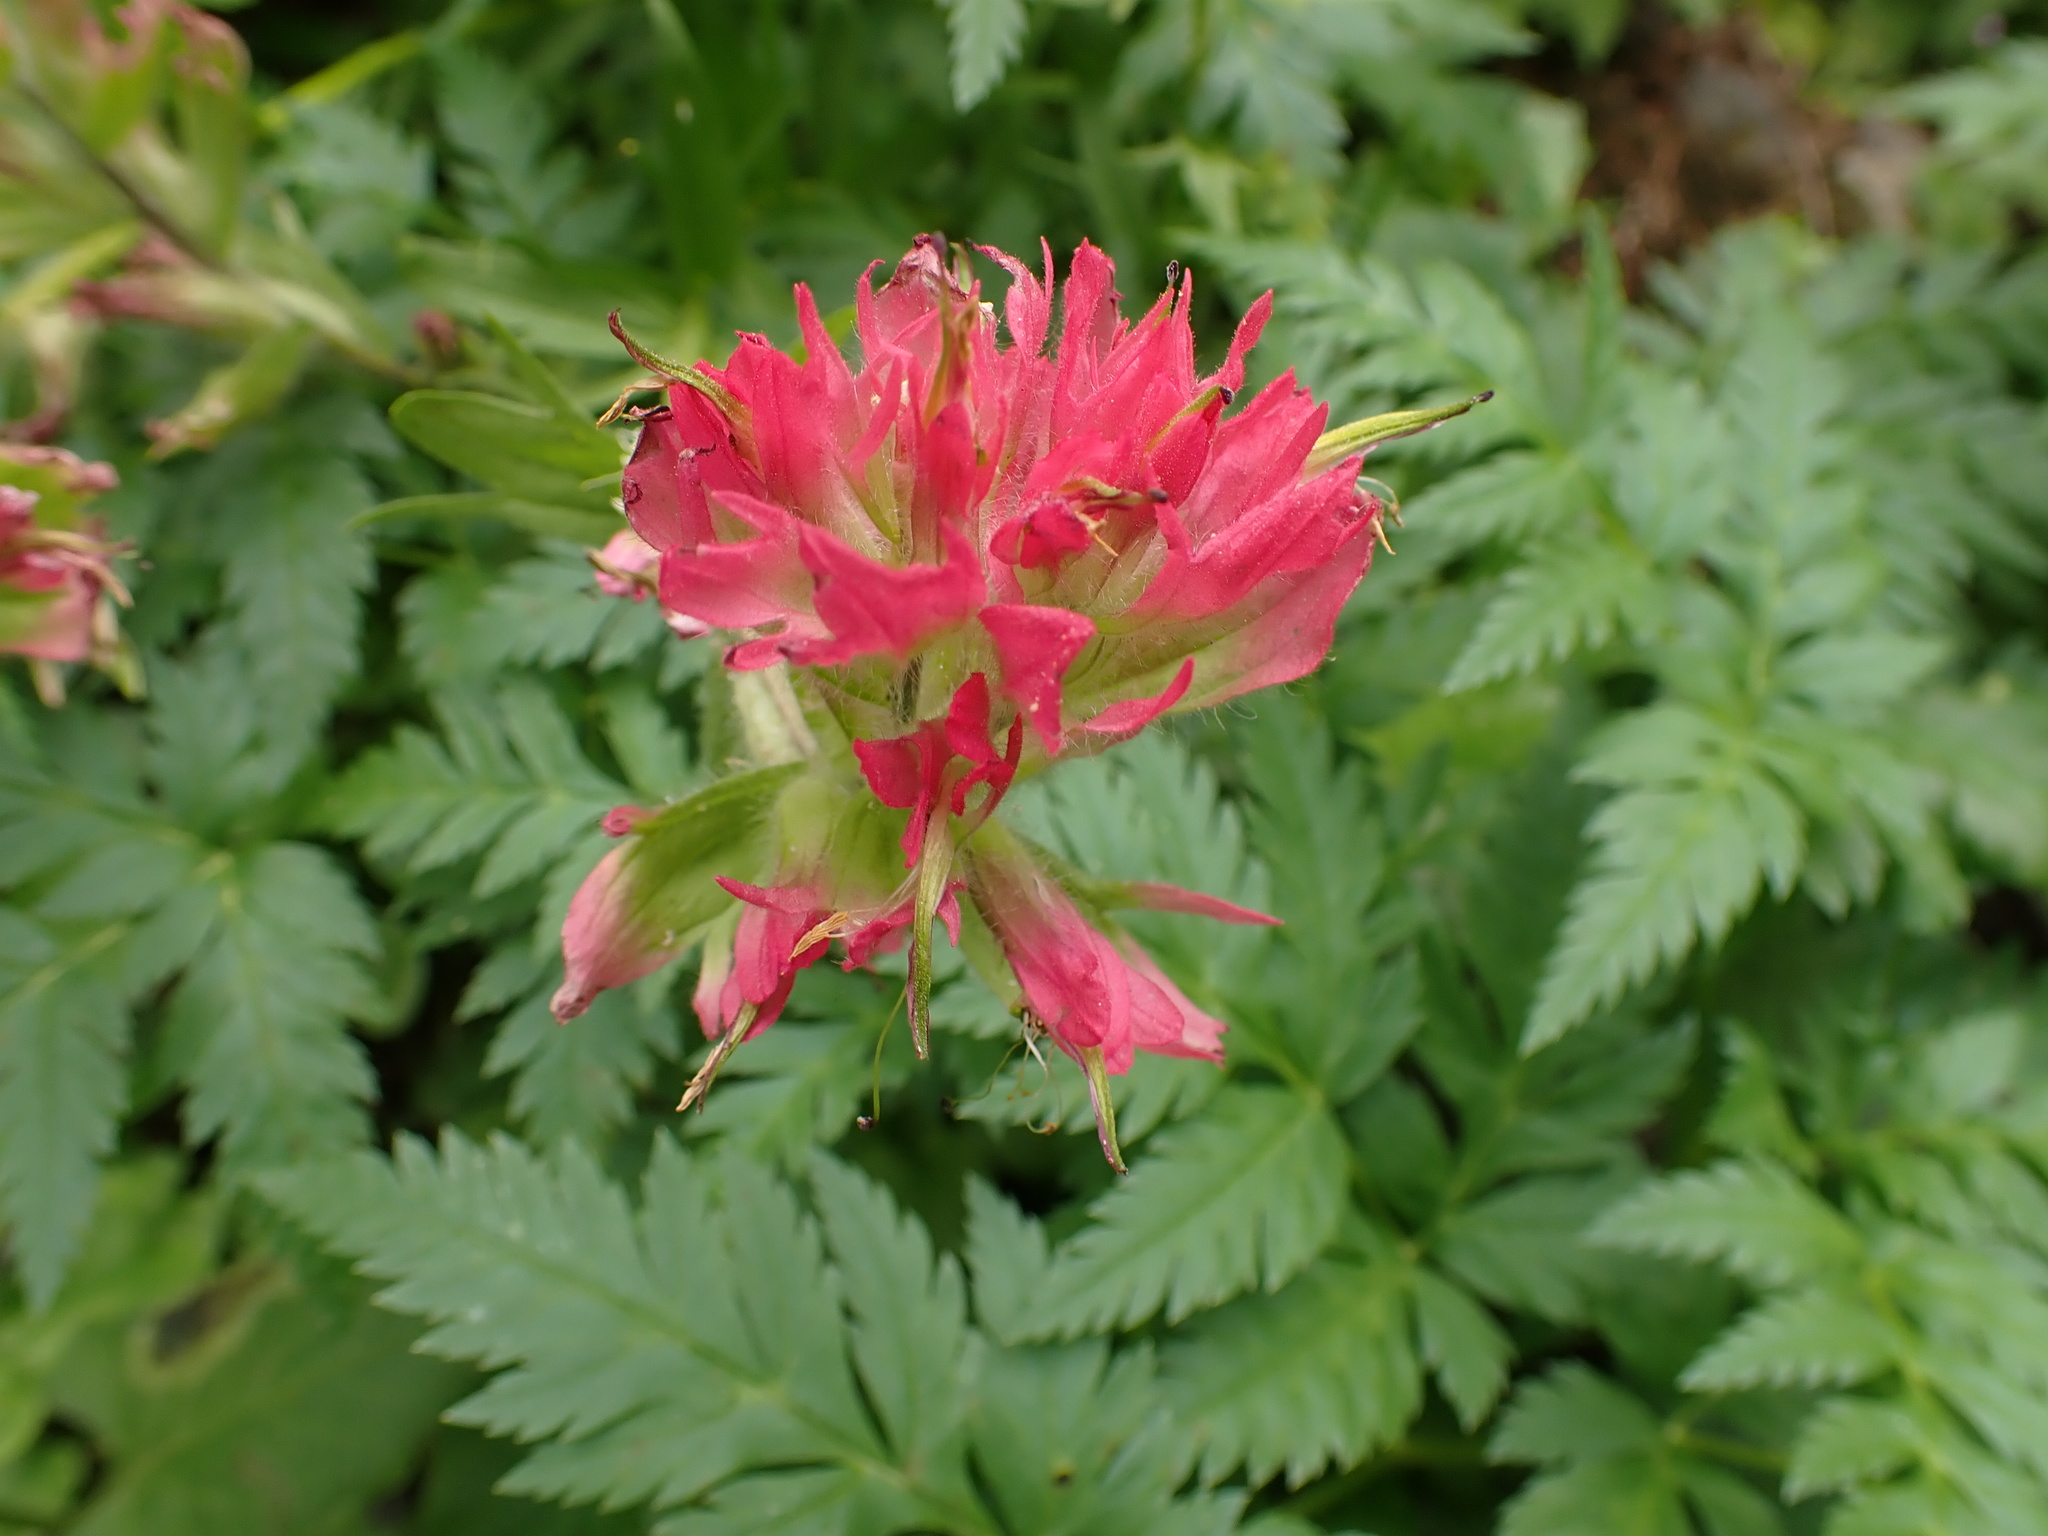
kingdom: Plantae
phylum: Tracheophyta
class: Magnoliopsida
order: Lamiales
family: Orobanchaceae
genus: Castilleja
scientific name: Castilleja parviflora
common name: Mountain paintbrush
